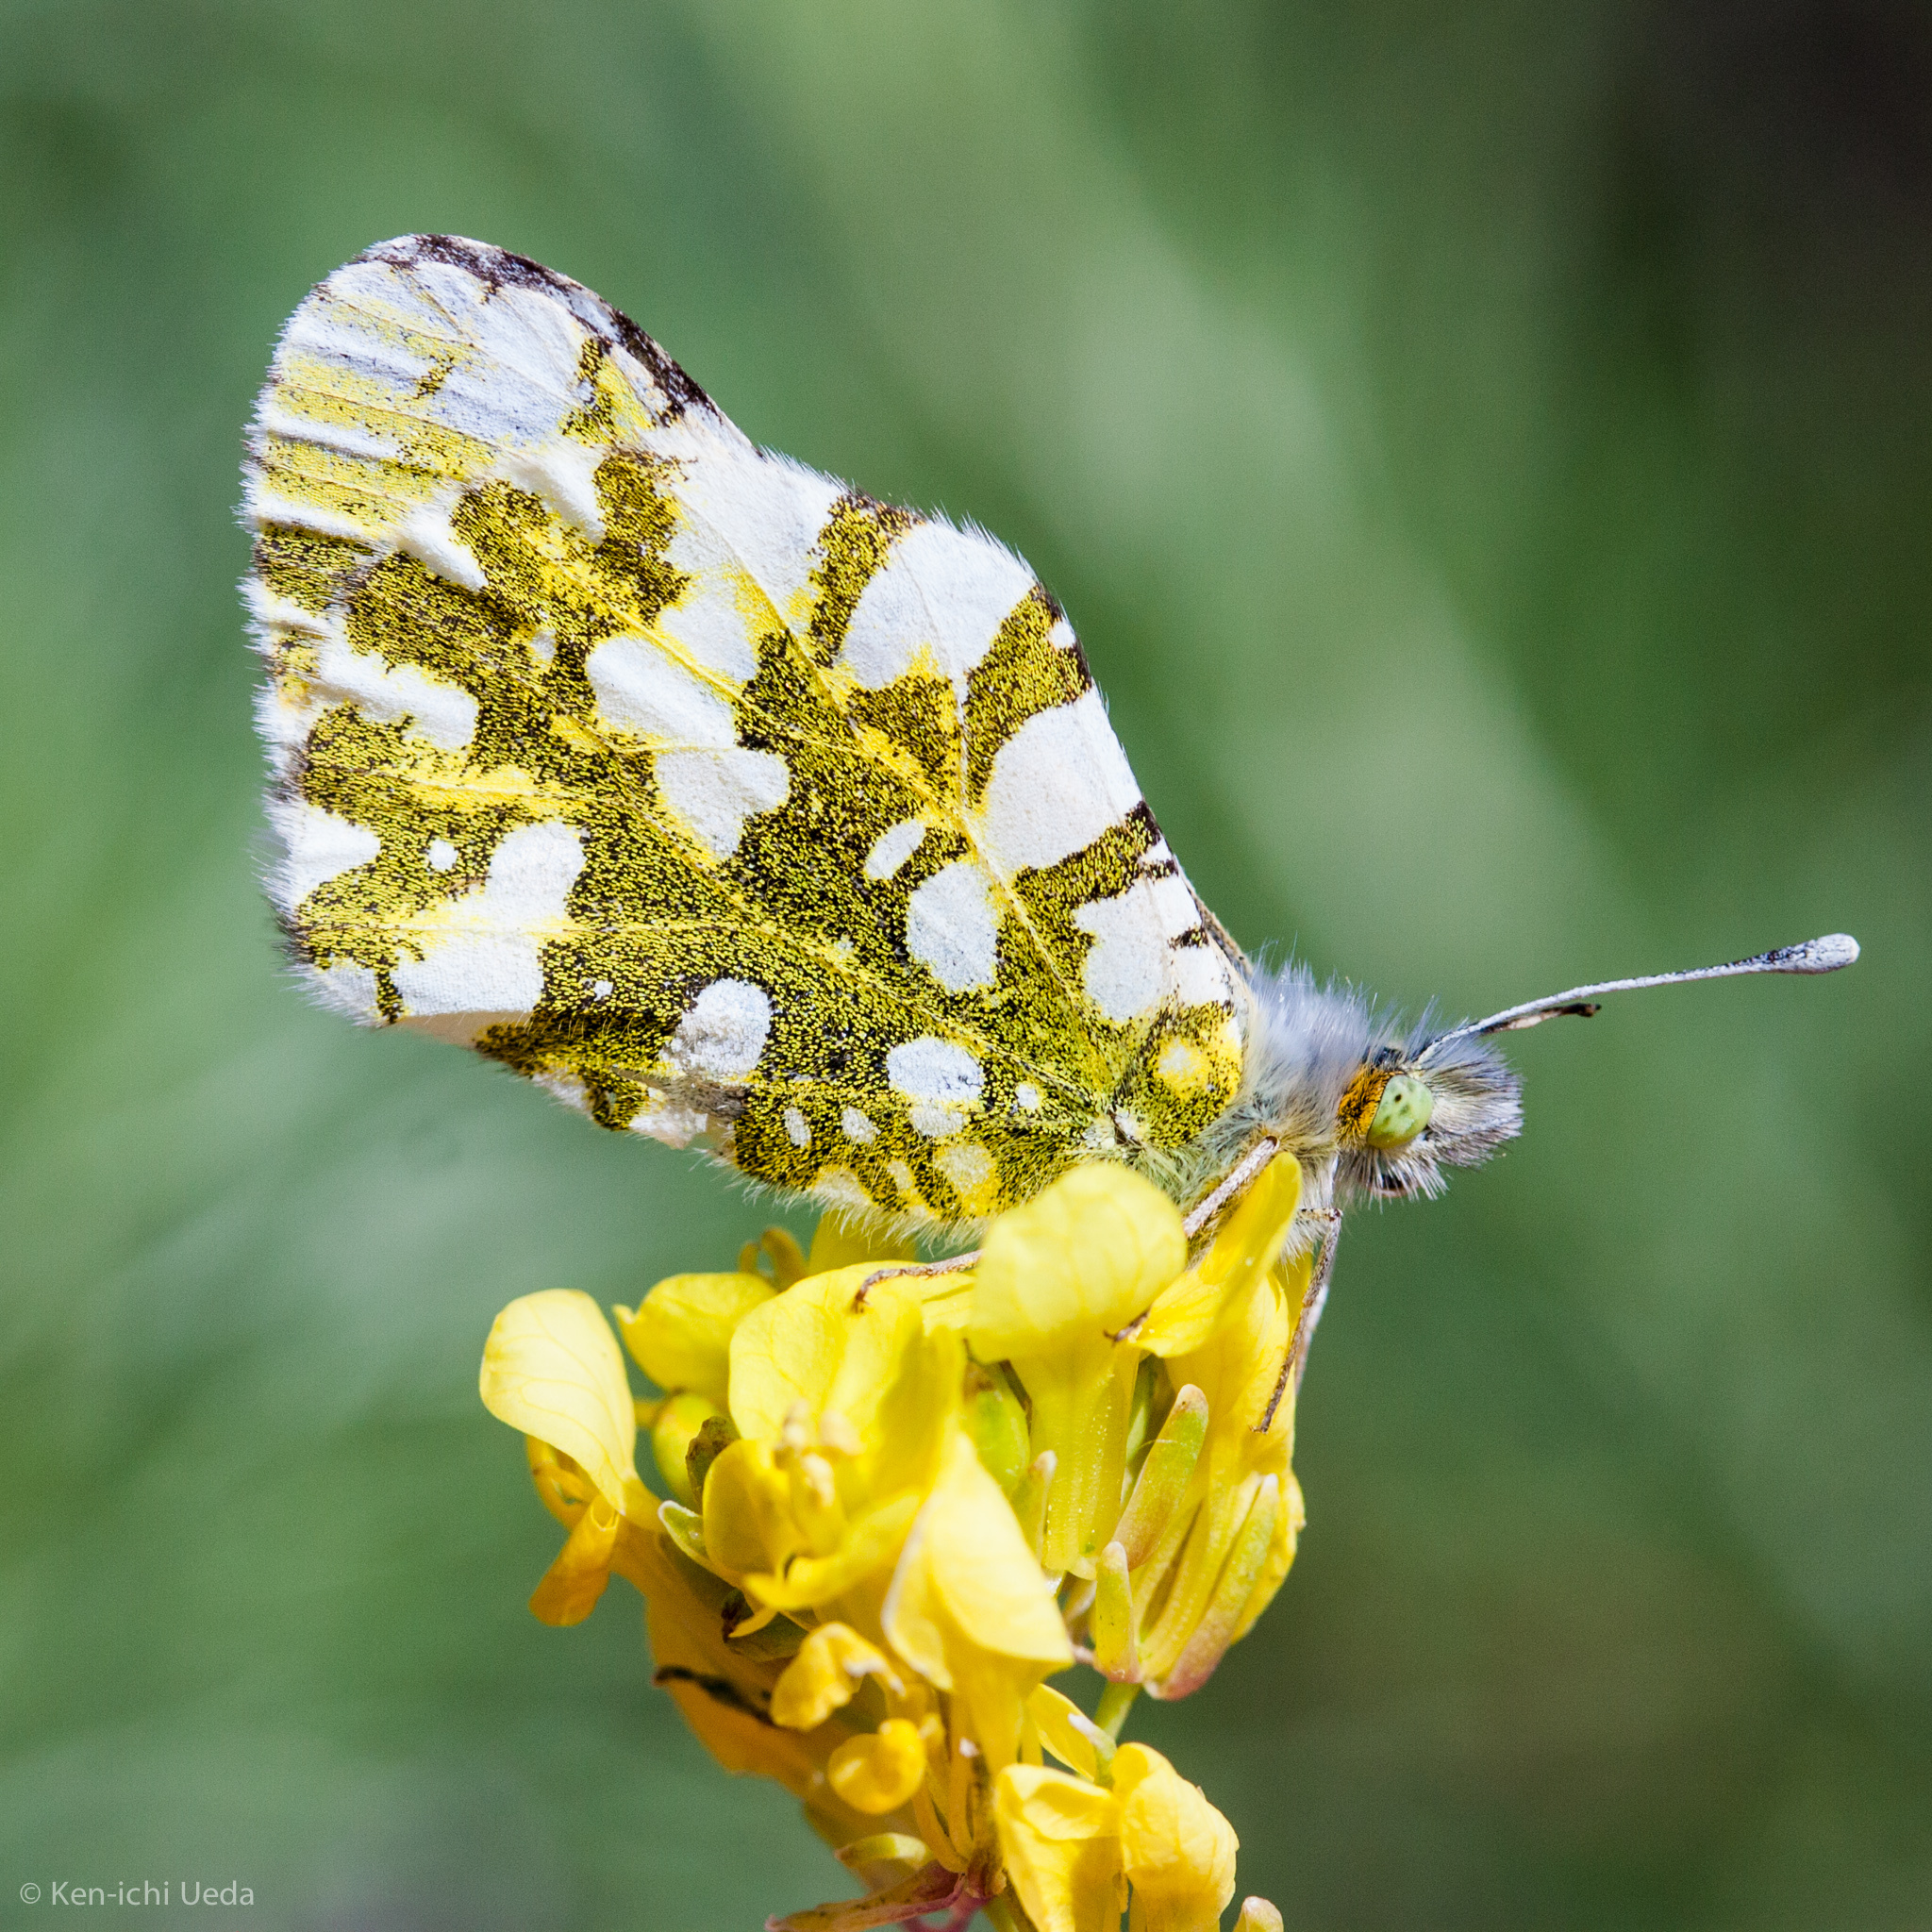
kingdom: Animalia
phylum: Arthropoda
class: Insecta
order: Lepidoptera
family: Pieridae
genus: Euchloe
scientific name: Euchloe ausonides
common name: Creamy marblewing
